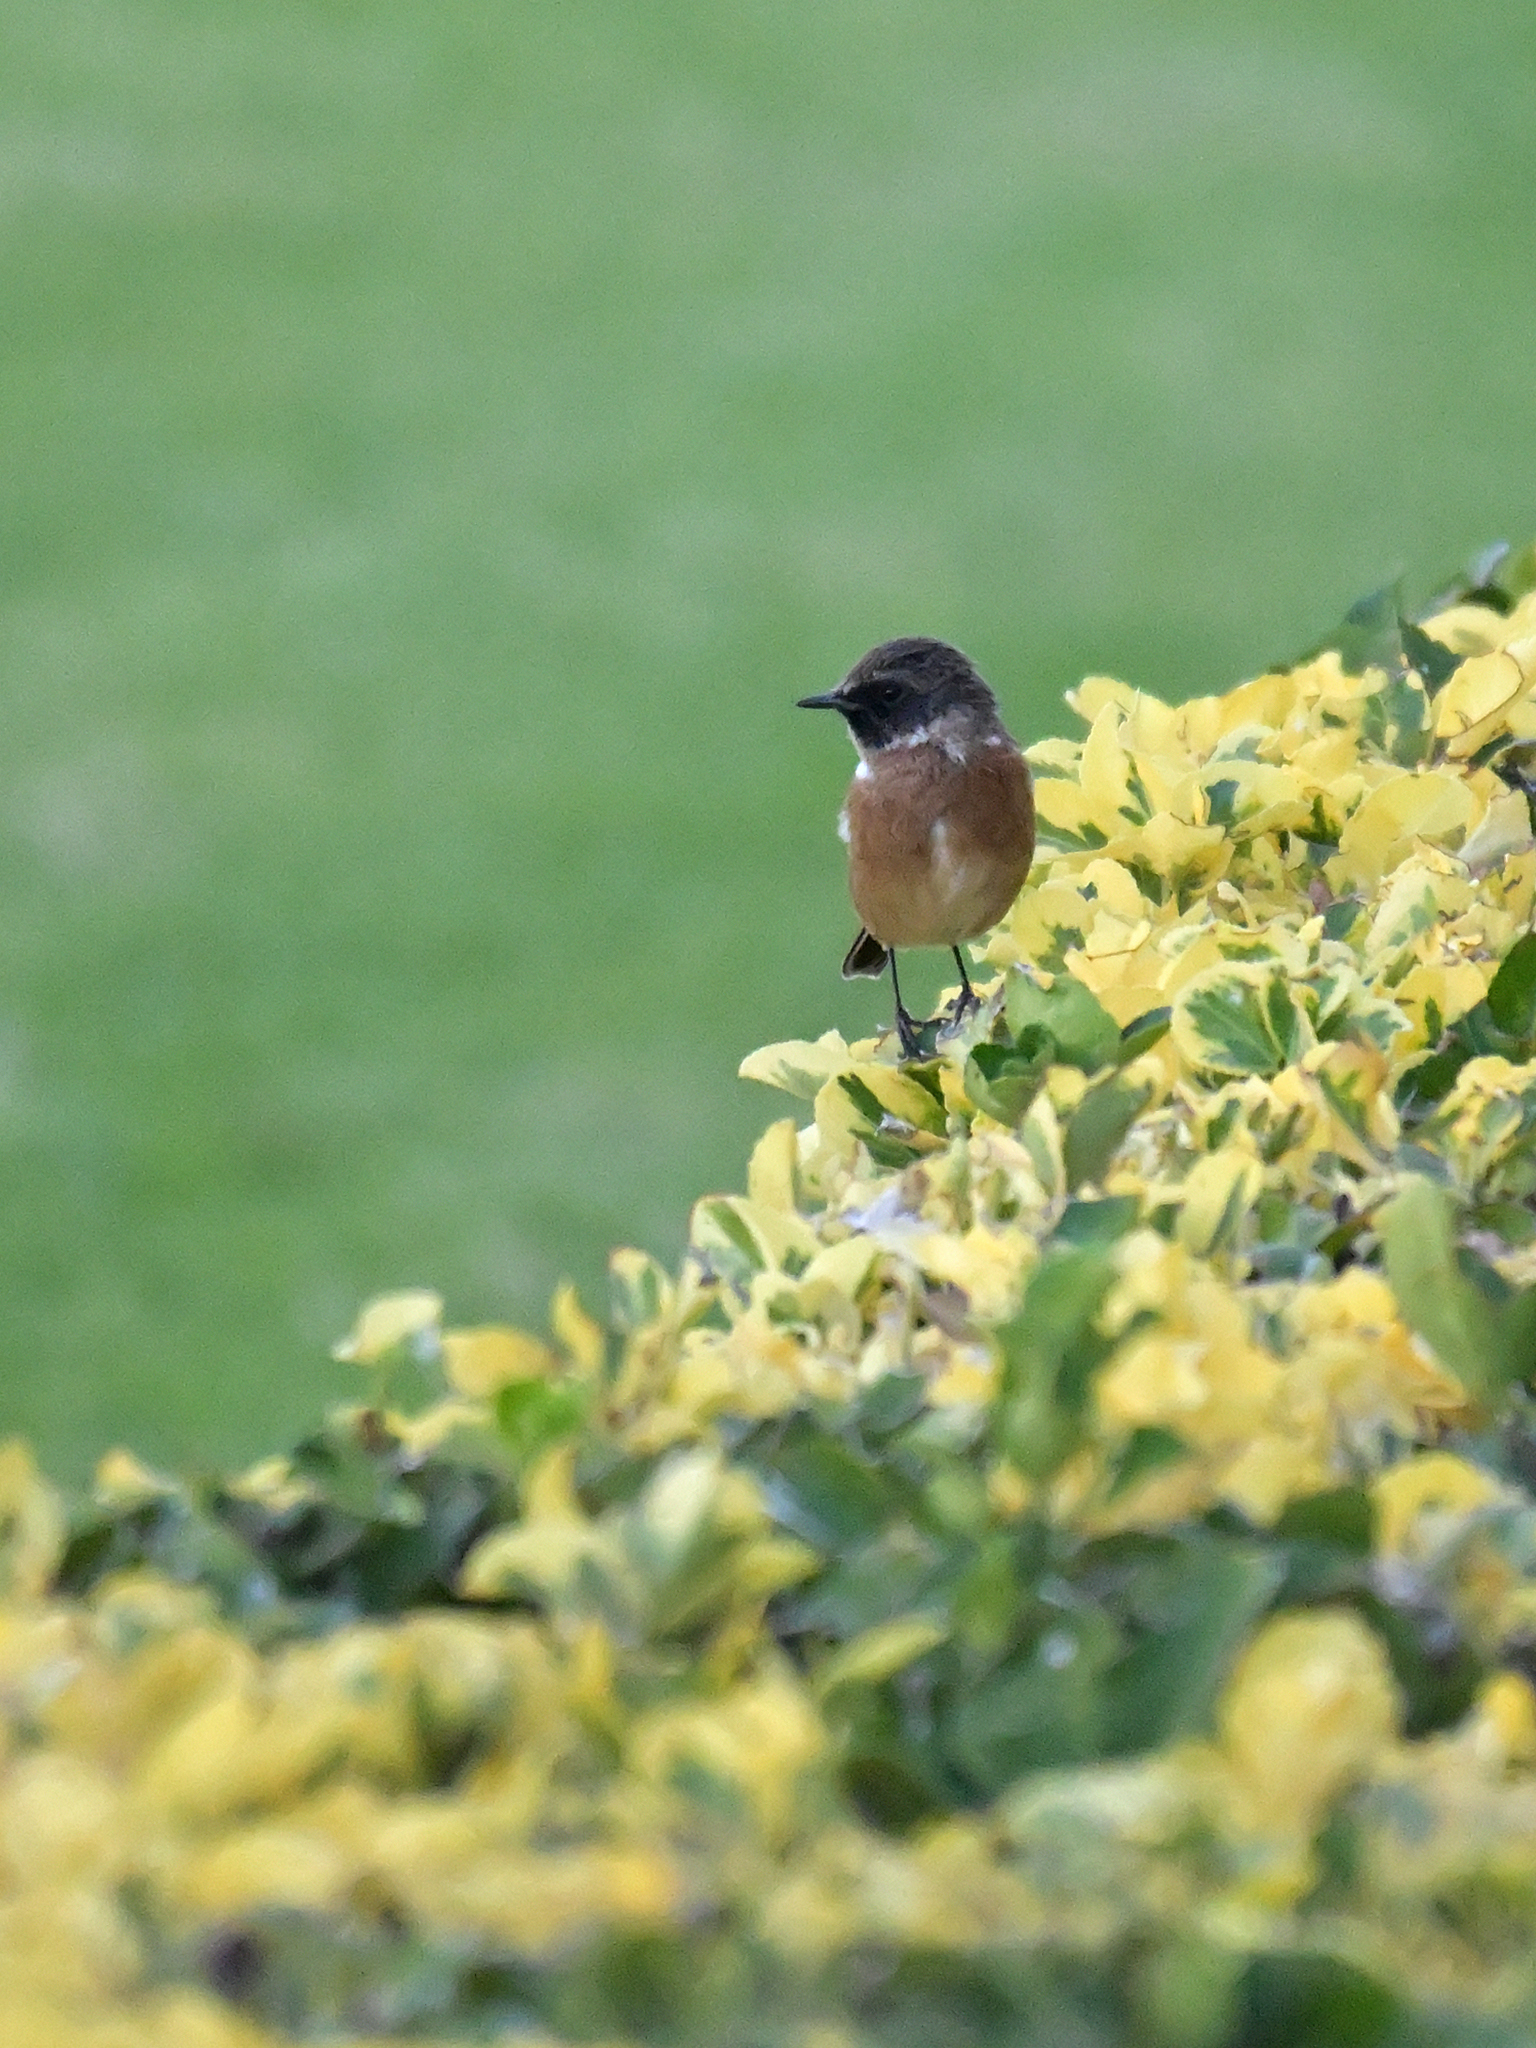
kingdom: Animalia
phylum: Chordata
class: Aves
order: Passeriformes
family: Muscicapidae
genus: Saxicola
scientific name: Saxicola rubicola
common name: European stonechat
